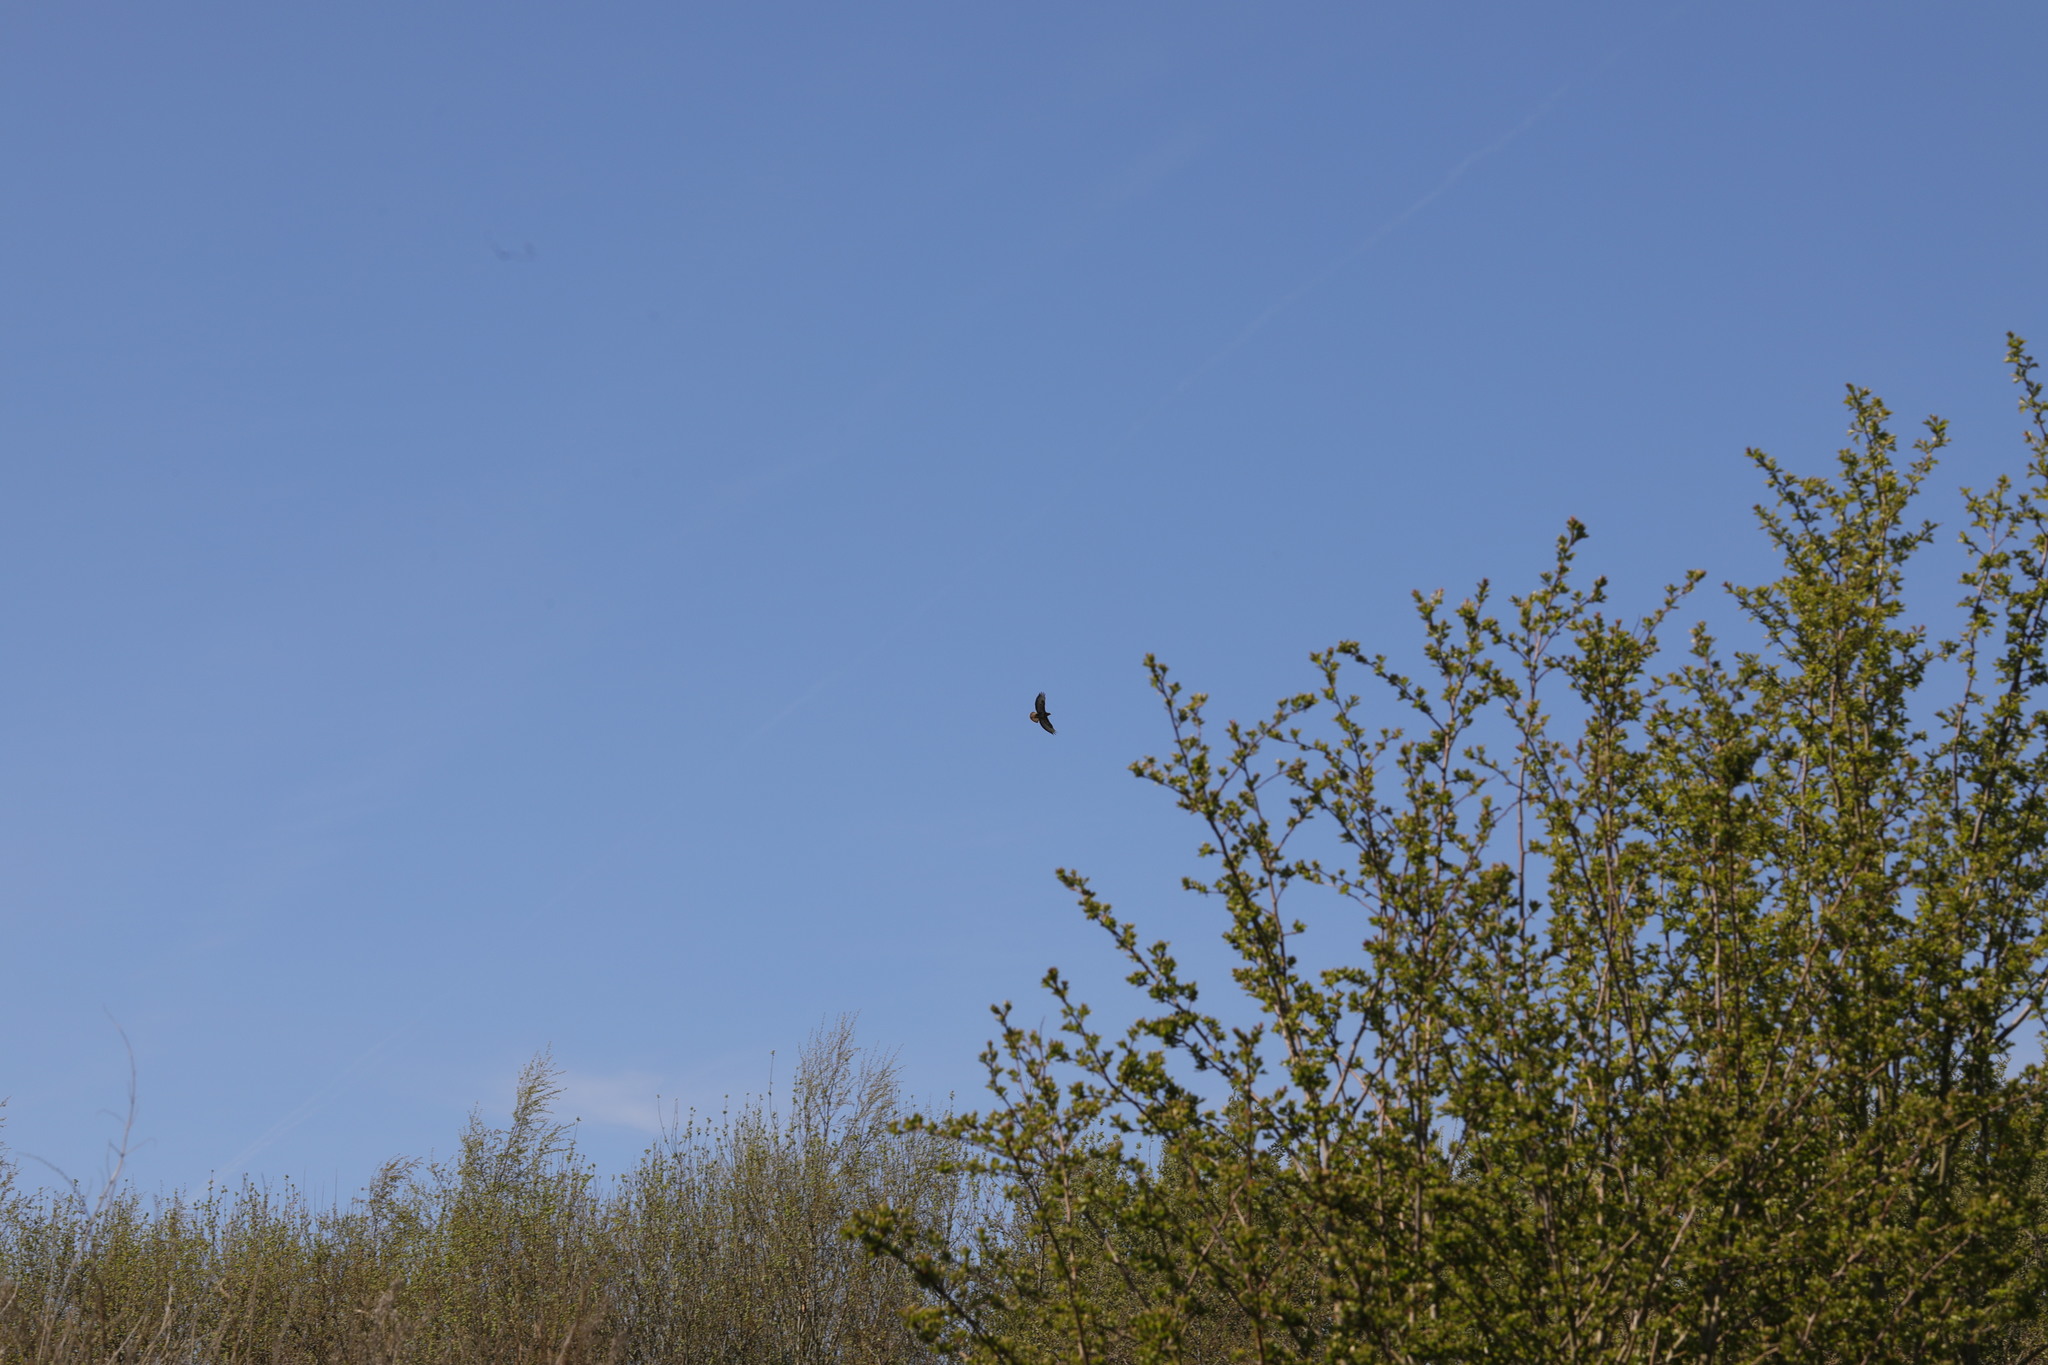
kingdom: Animalia
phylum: Chordata
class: Aves
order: Accipitriformes
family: Accipitridae
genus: Buteo
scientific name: Buteo buteo
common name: Common buzzard
